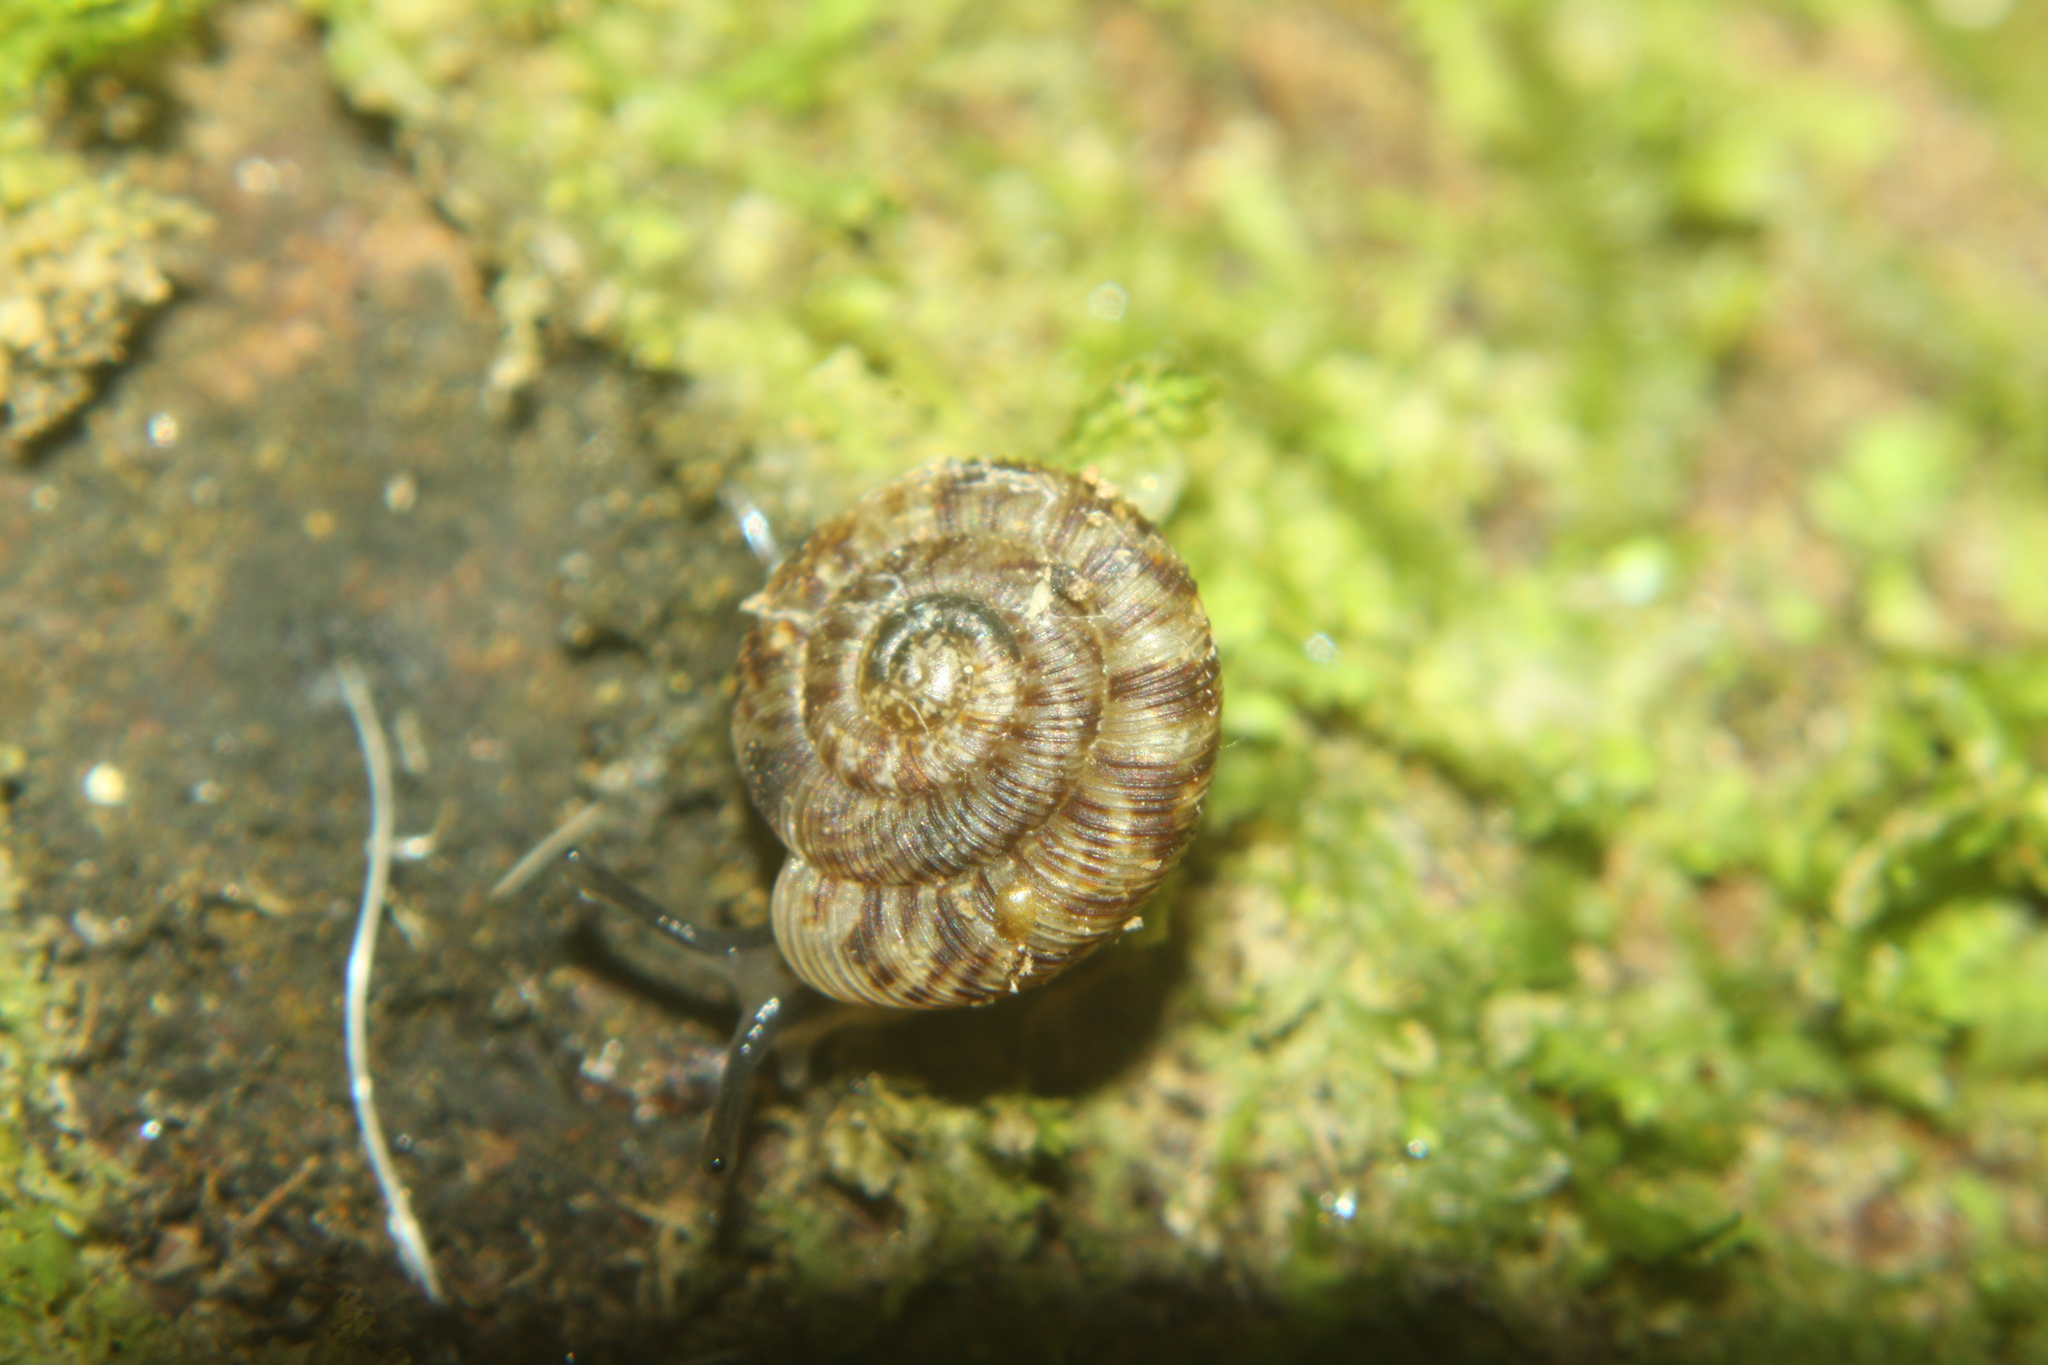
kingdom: Animalia
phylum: Mollusca
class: Gastropoda
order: Stylommatophora
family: Charopidae
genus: Phacussa
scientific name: Phacussa lucetta
